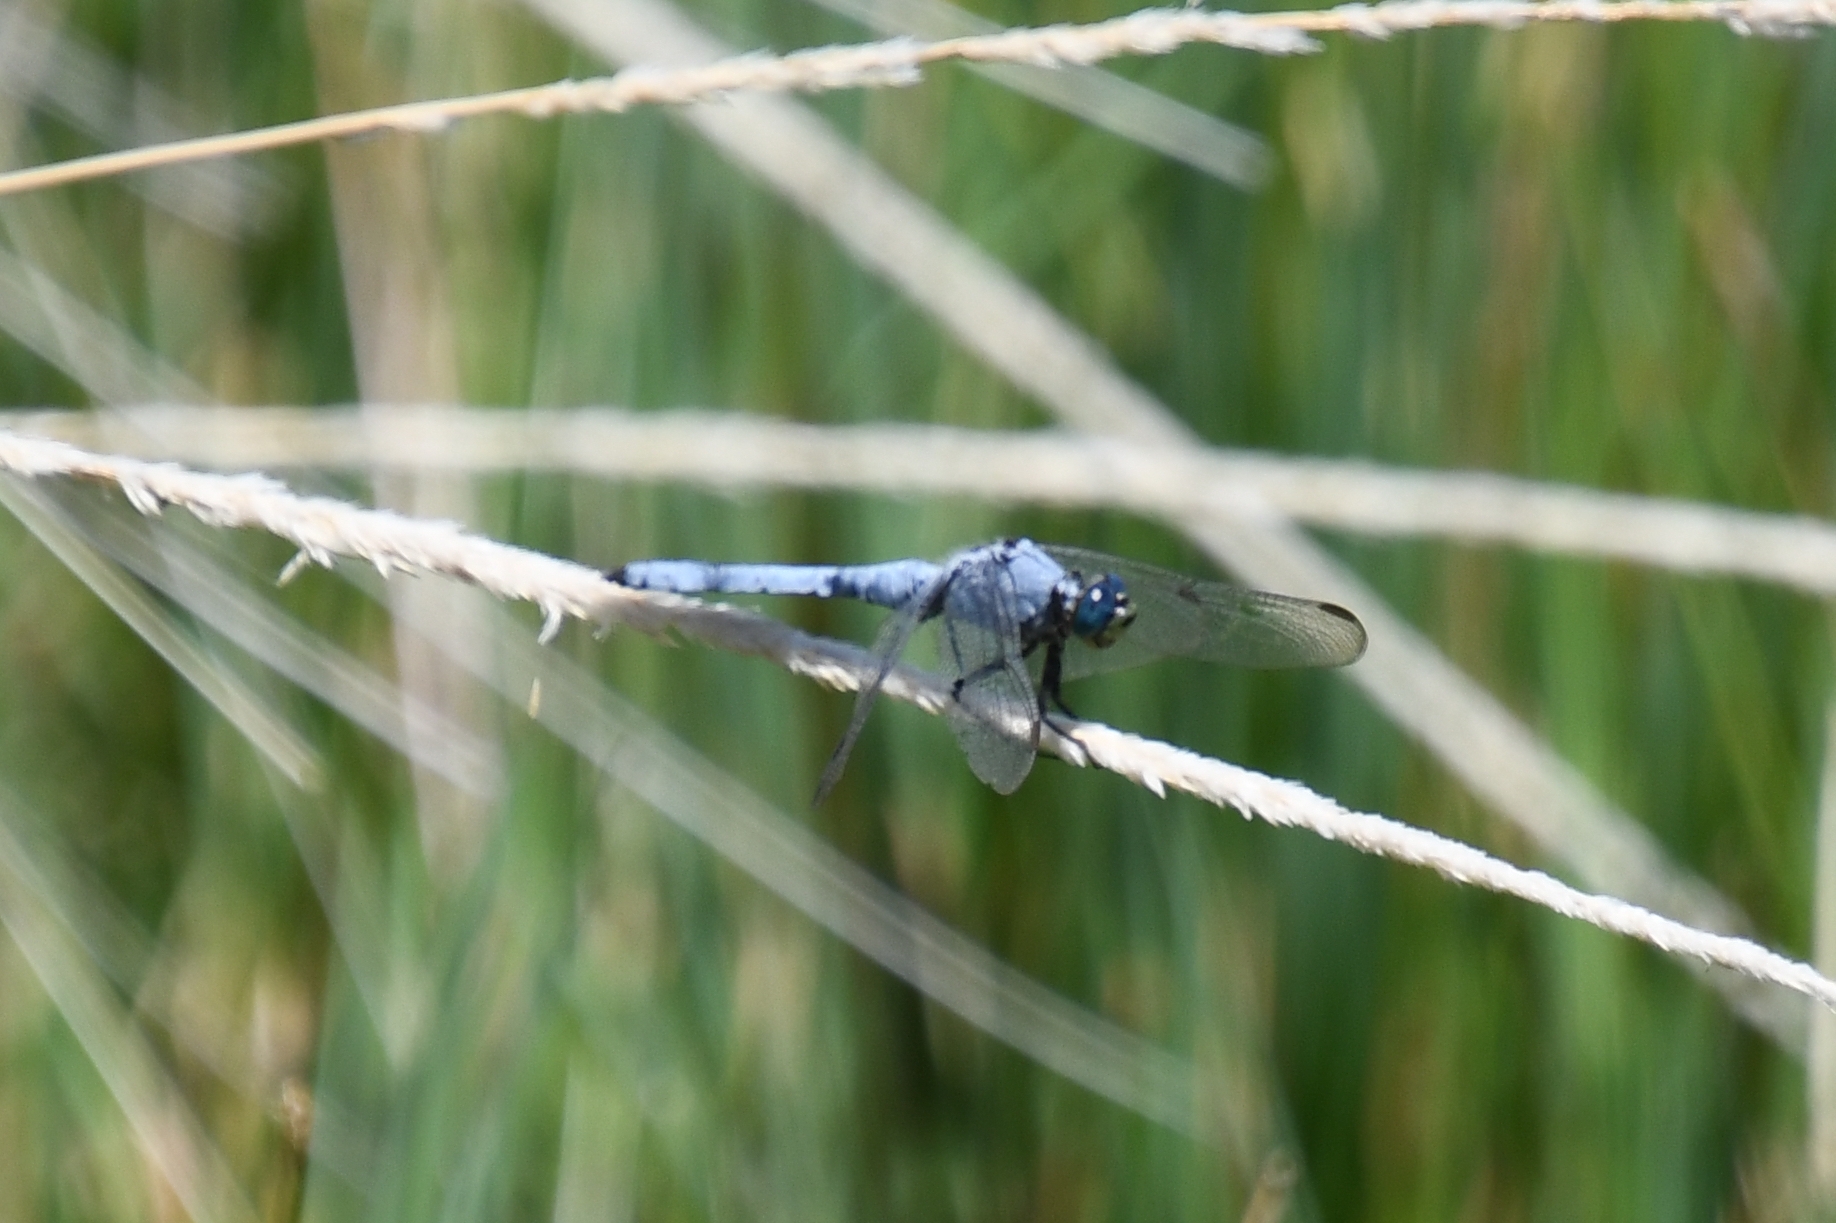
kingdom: Animalia
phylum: Arthropoda
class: Insecta
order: Odonata
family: Libellulidae
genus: Erythemis
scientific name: Erythemis collocata
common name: Western pondhawk
